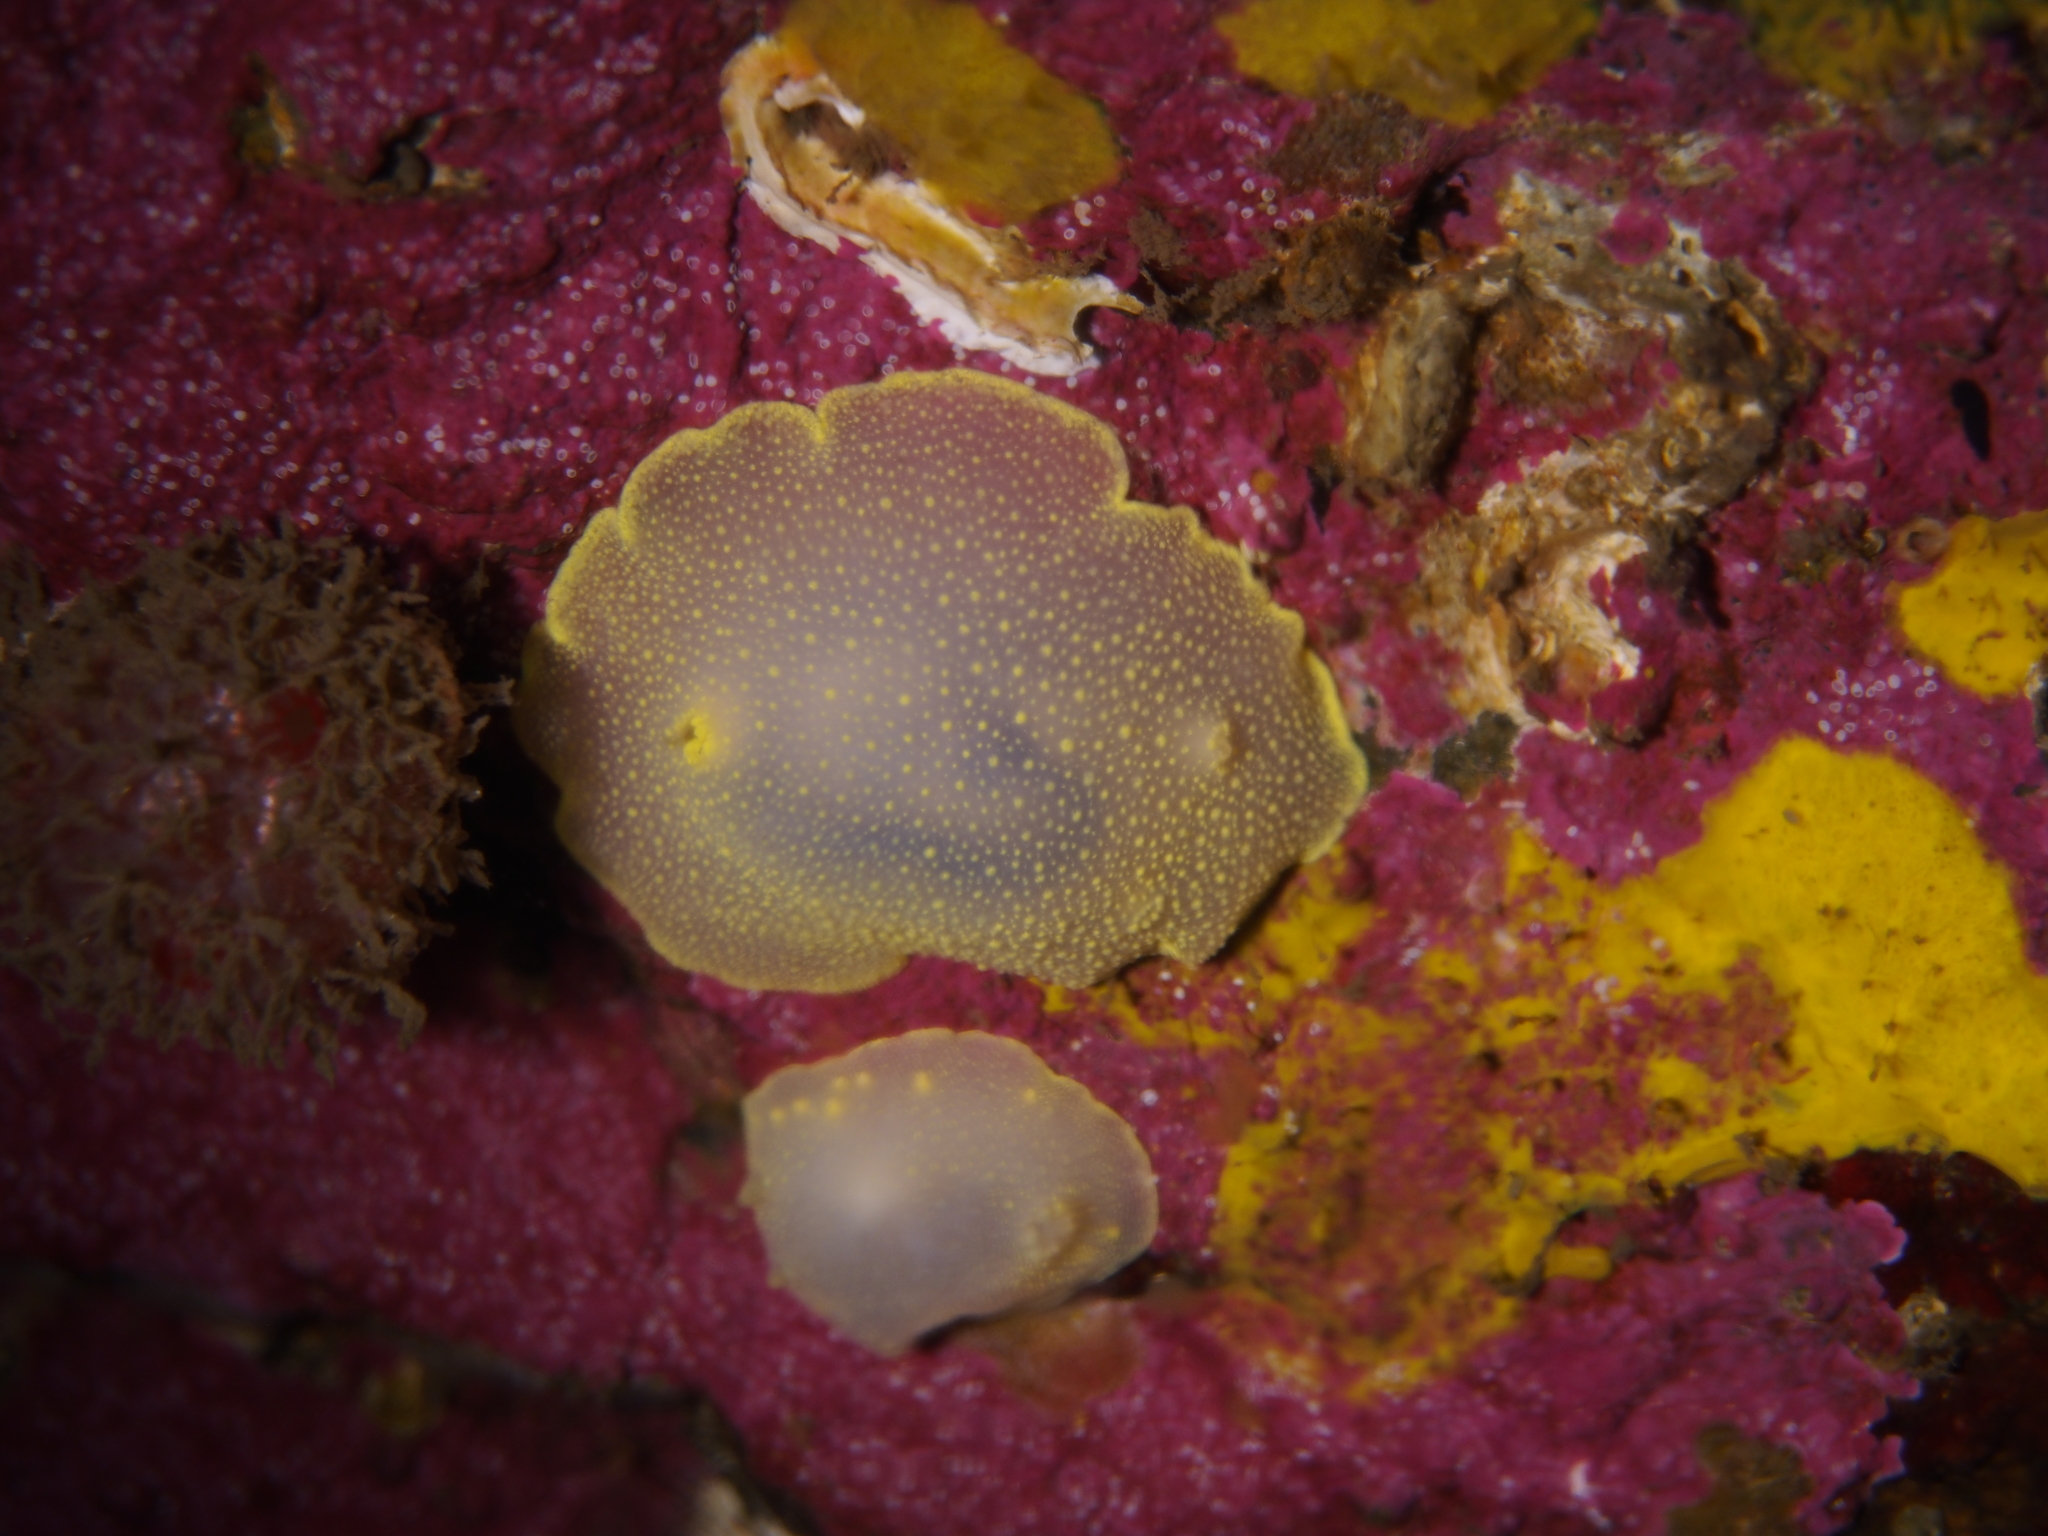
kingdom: Animalia
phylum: Mollusca
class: Gastropoda
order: Nudibranchia
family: Cadlinidae
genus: Cadlina
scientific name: Cadlina laevis
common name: White atlantic cadlina
